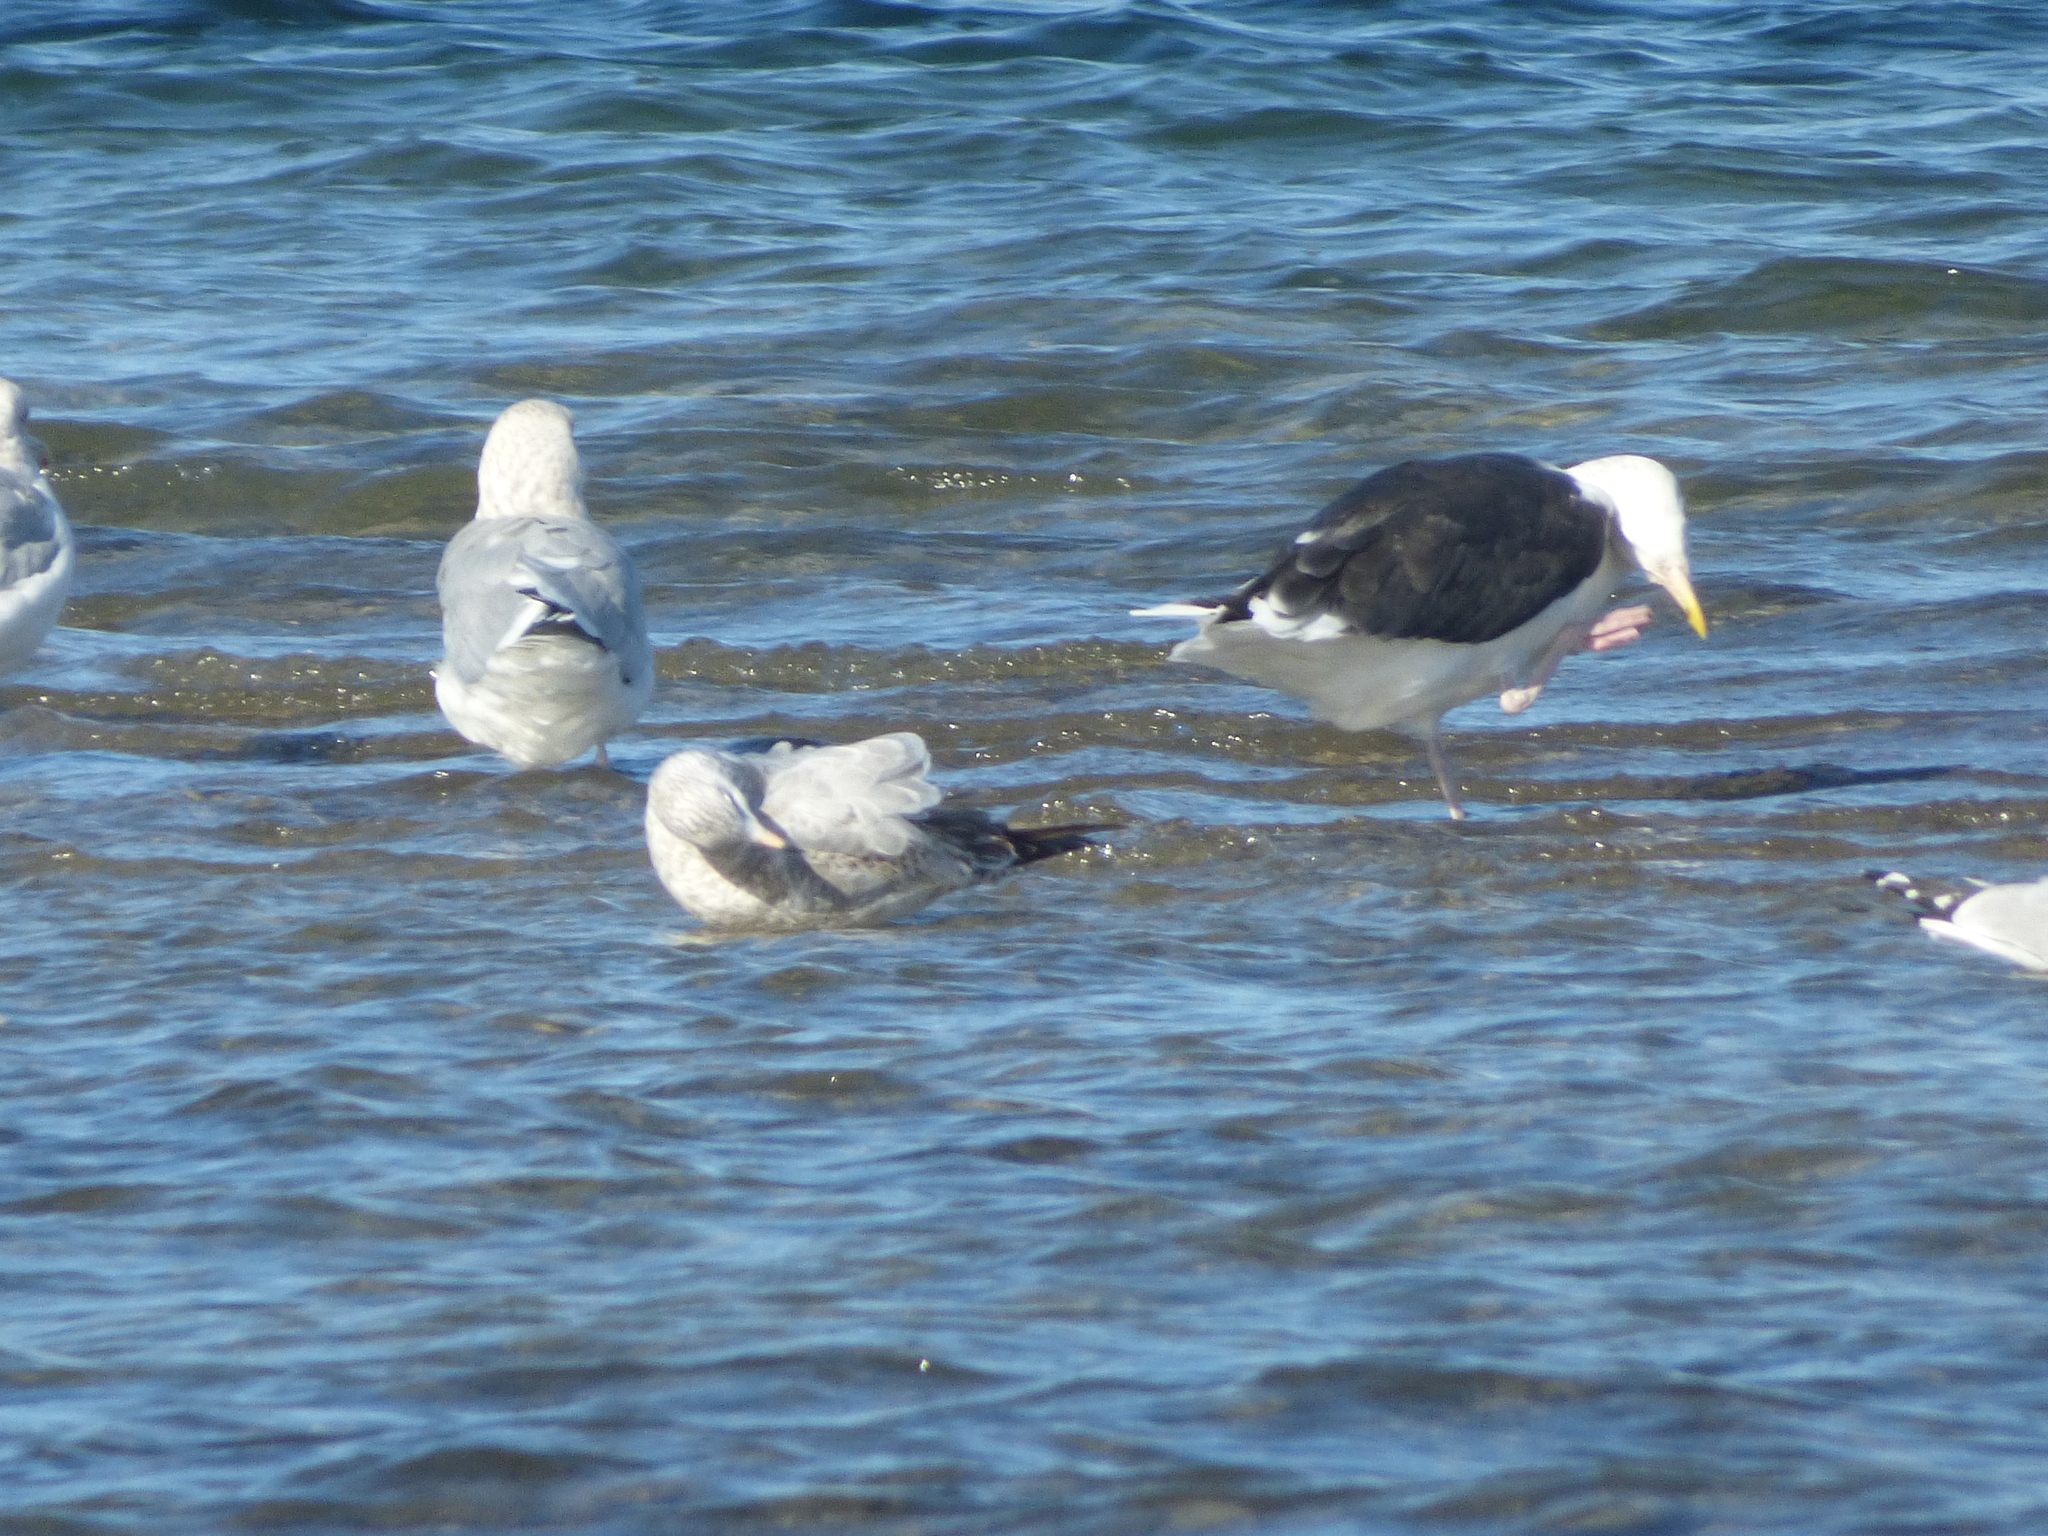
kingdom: Animalia
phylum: Chordata
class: Aves
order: Charadriiformes
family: Laridae
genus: Larus
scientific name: Larus marinus
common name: Great black-backed gull
